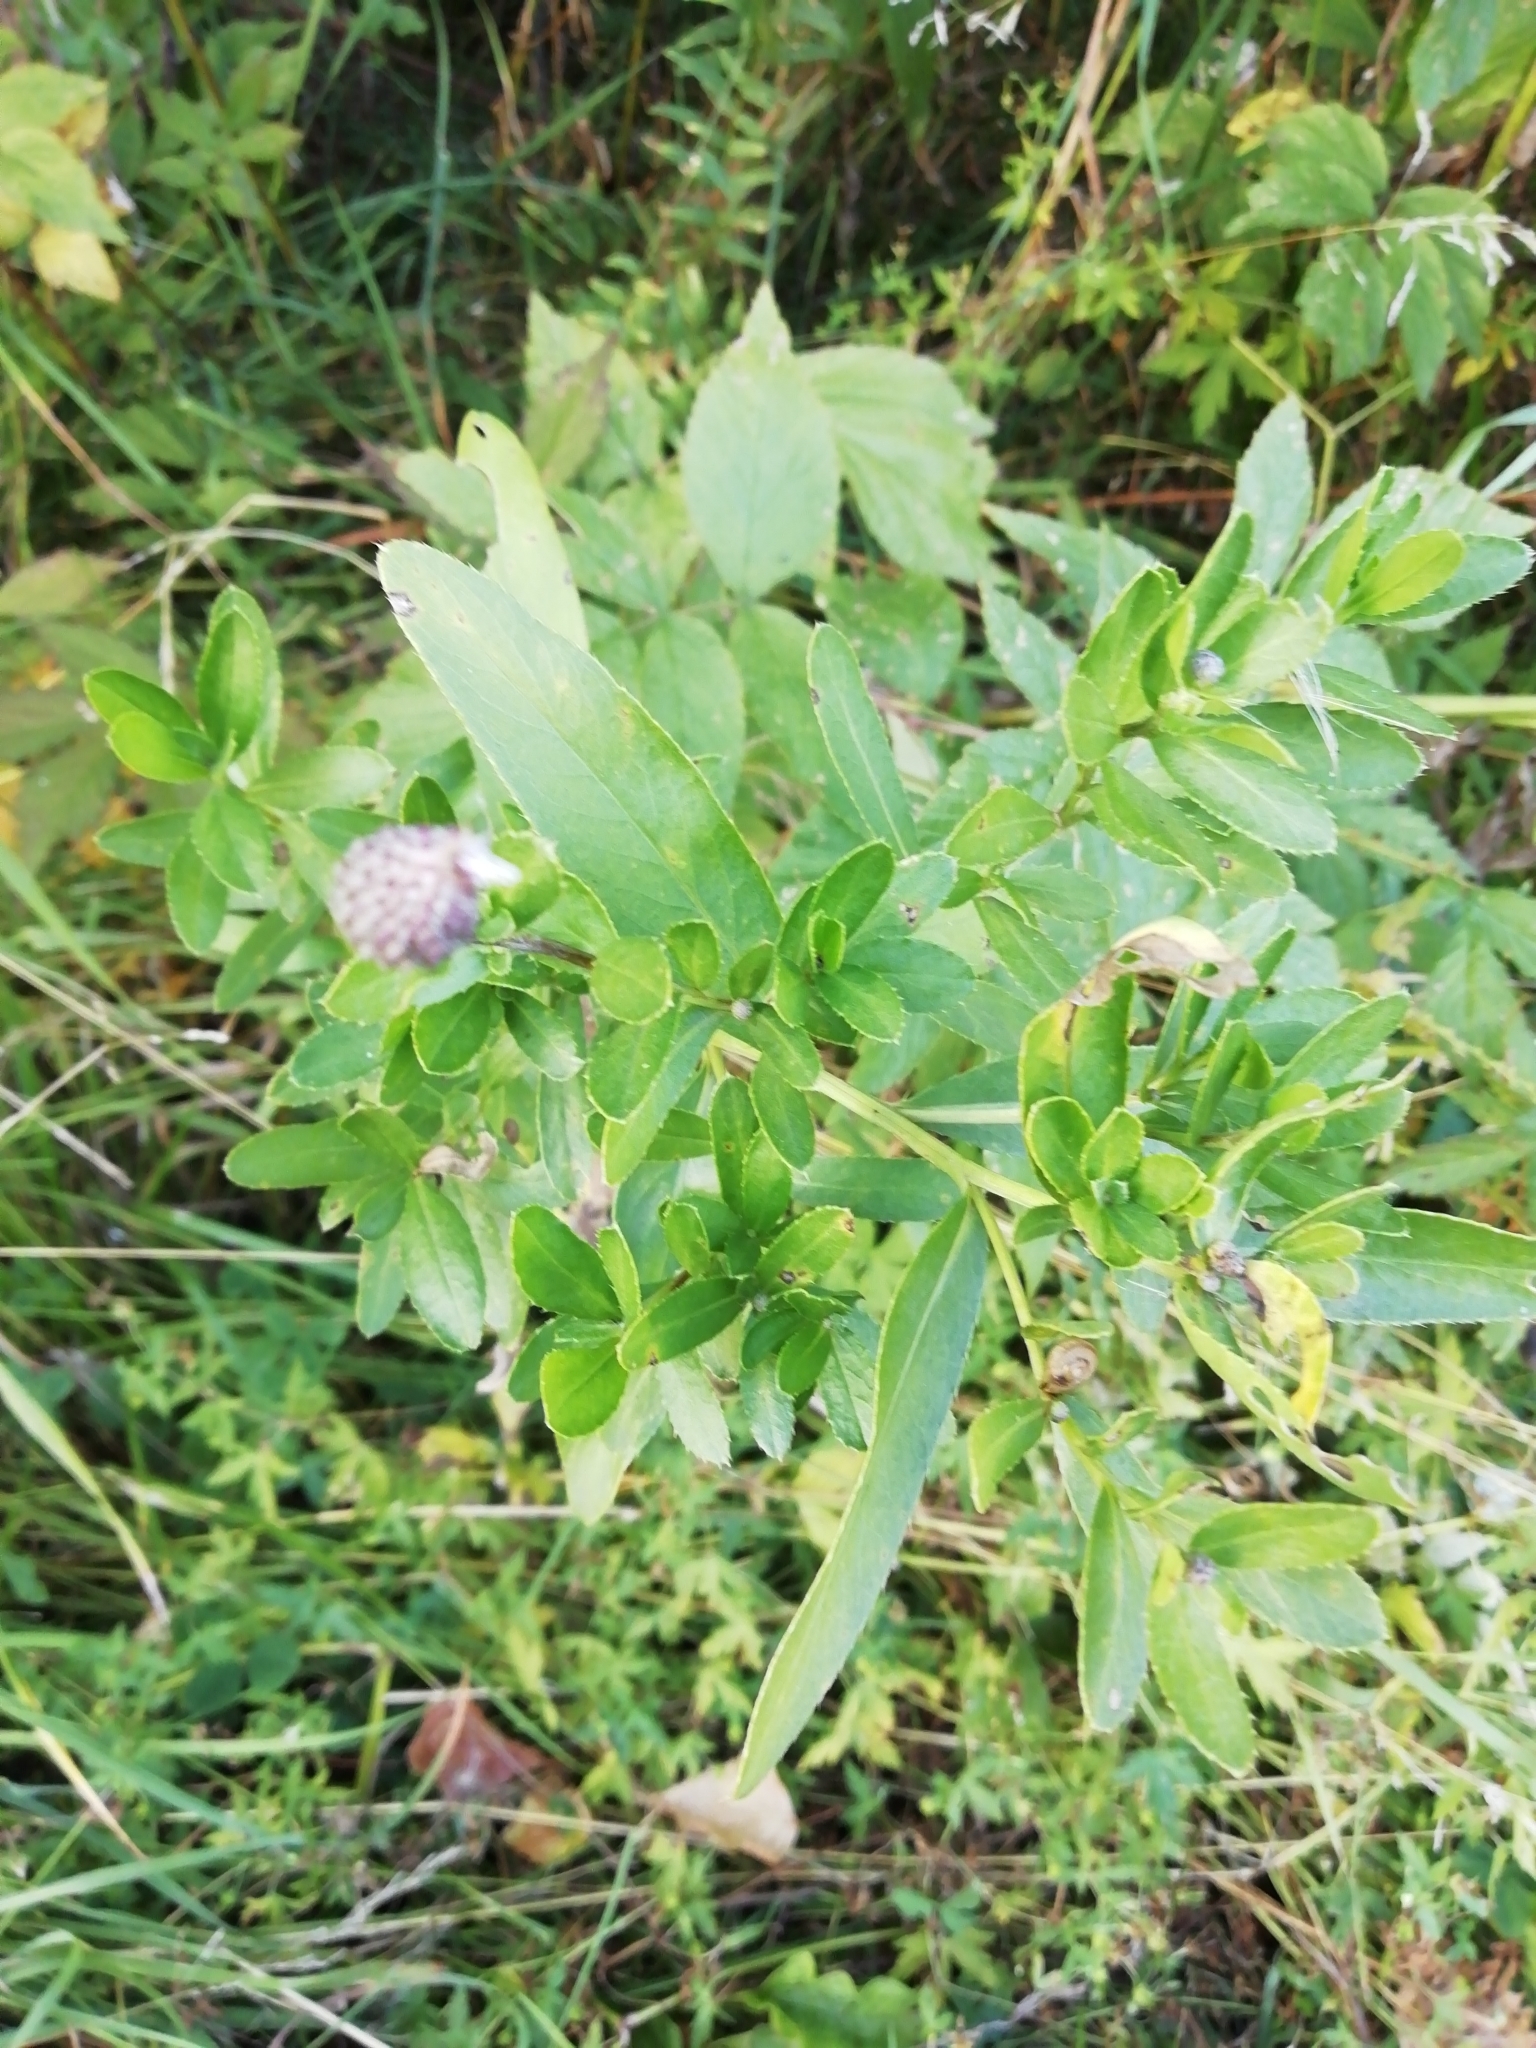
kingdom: Plantae
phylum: Tracheophyta
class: Magnoliopsida
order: Asterales
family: Asteraceae
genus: Cirsium
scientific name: Cirsium arvense
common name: Creeping thistle
